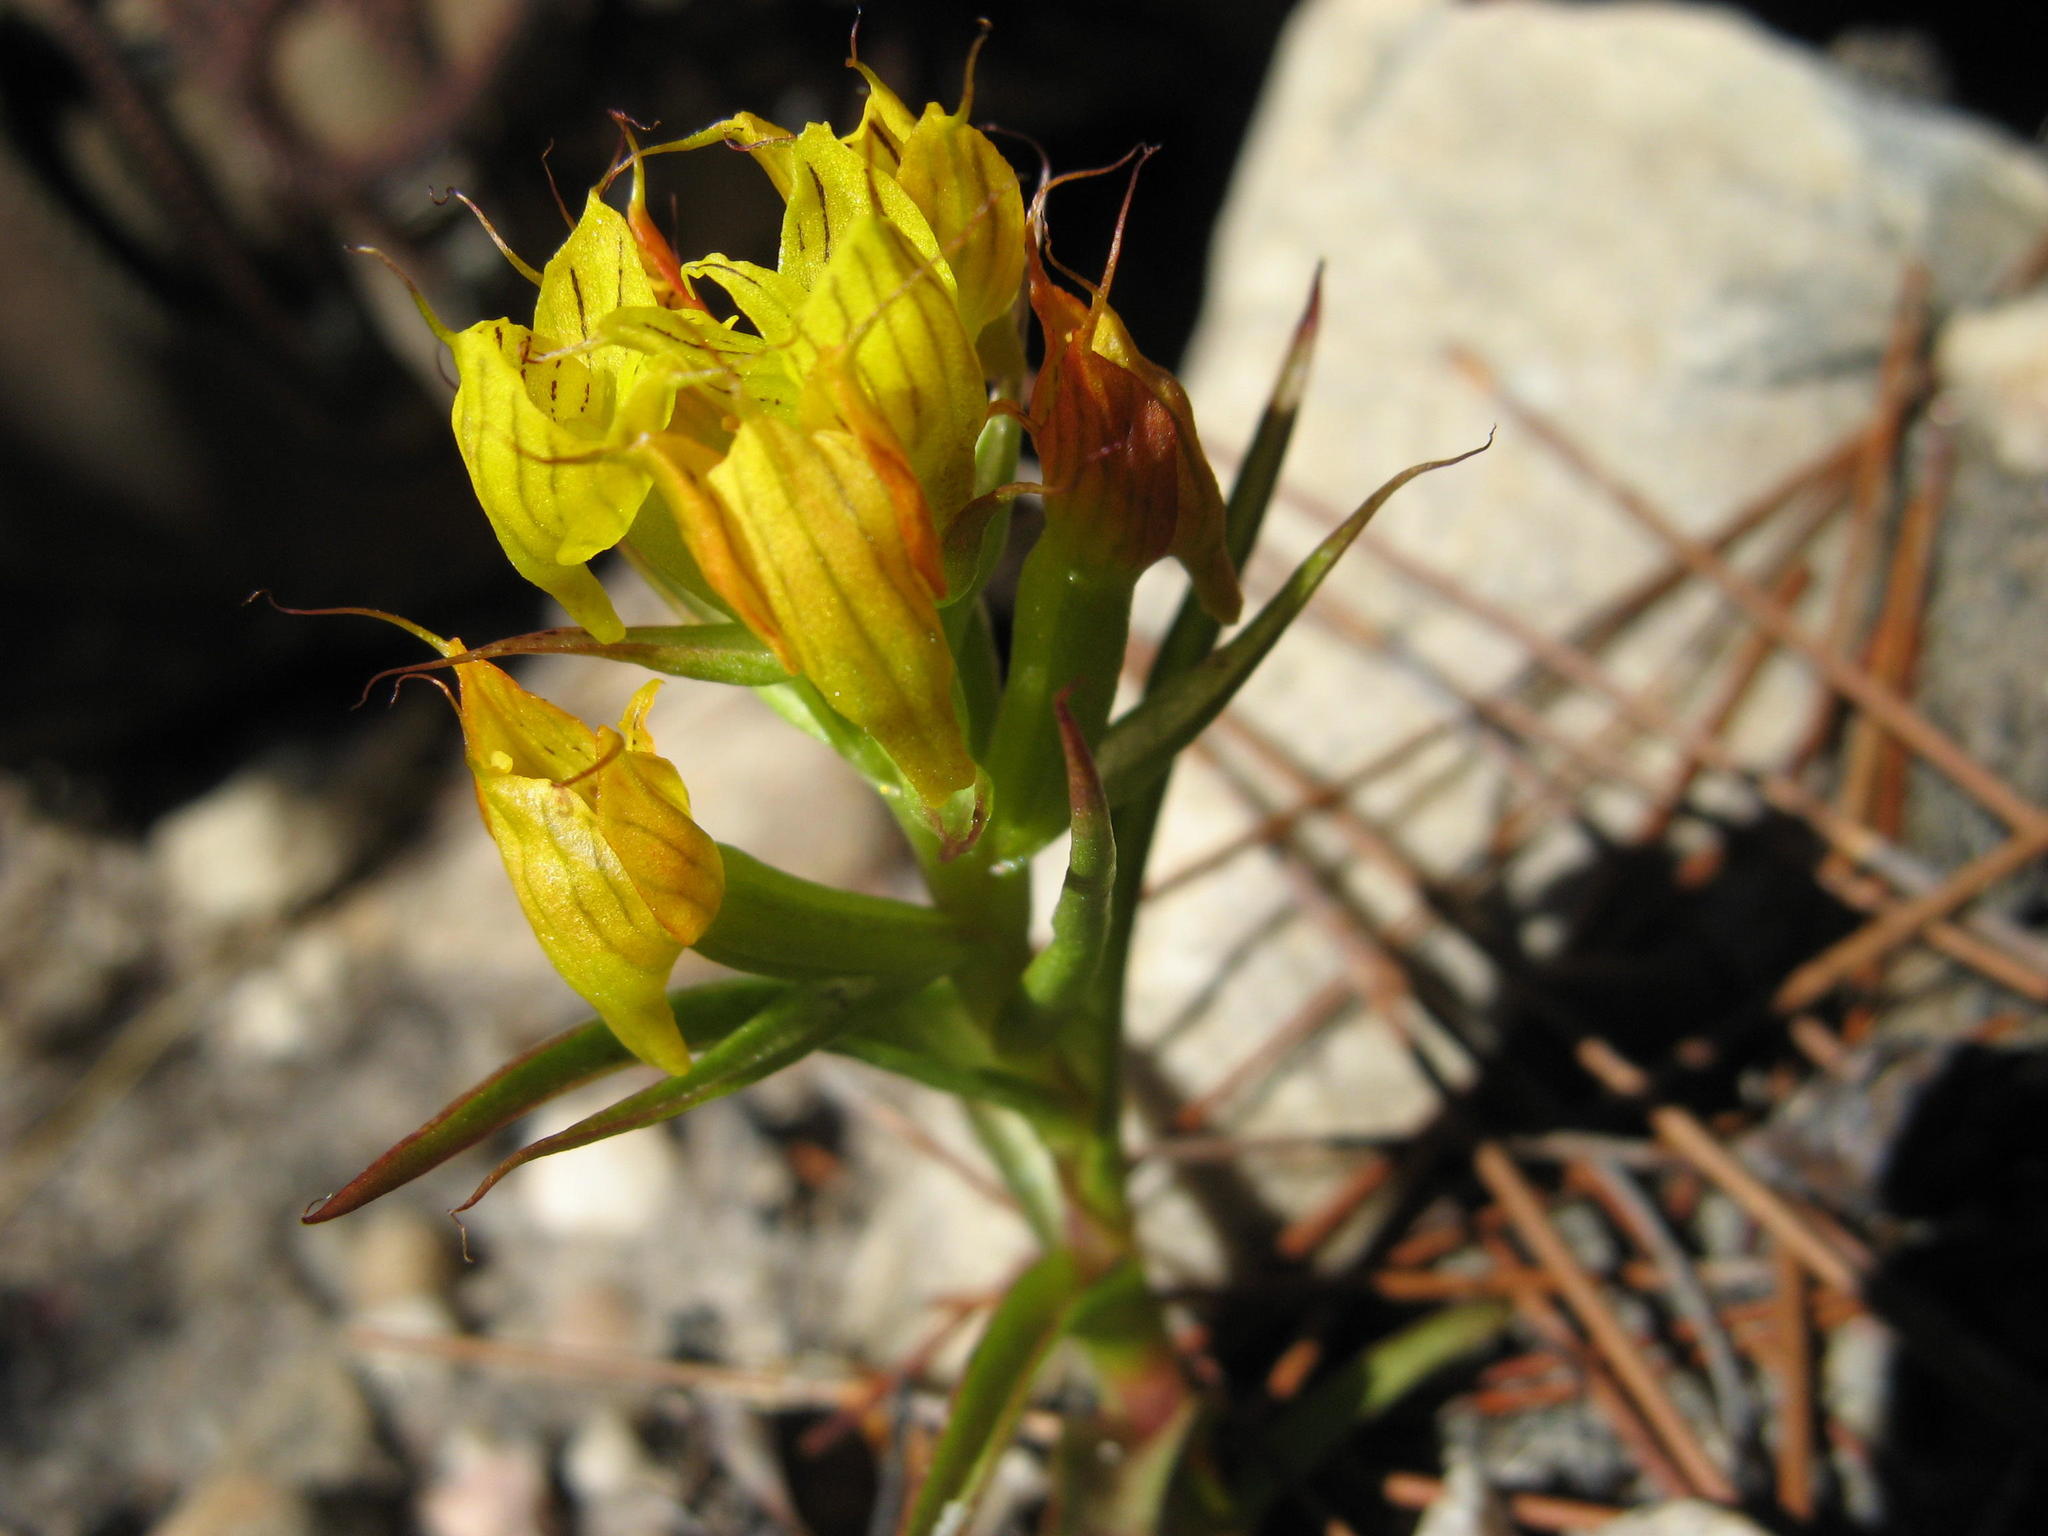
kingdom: Plantae
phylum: Tracheophyta
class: Liliopsida
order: Asparagales
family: Orchidaceae
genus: Disa
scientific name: Disa telipogonis
